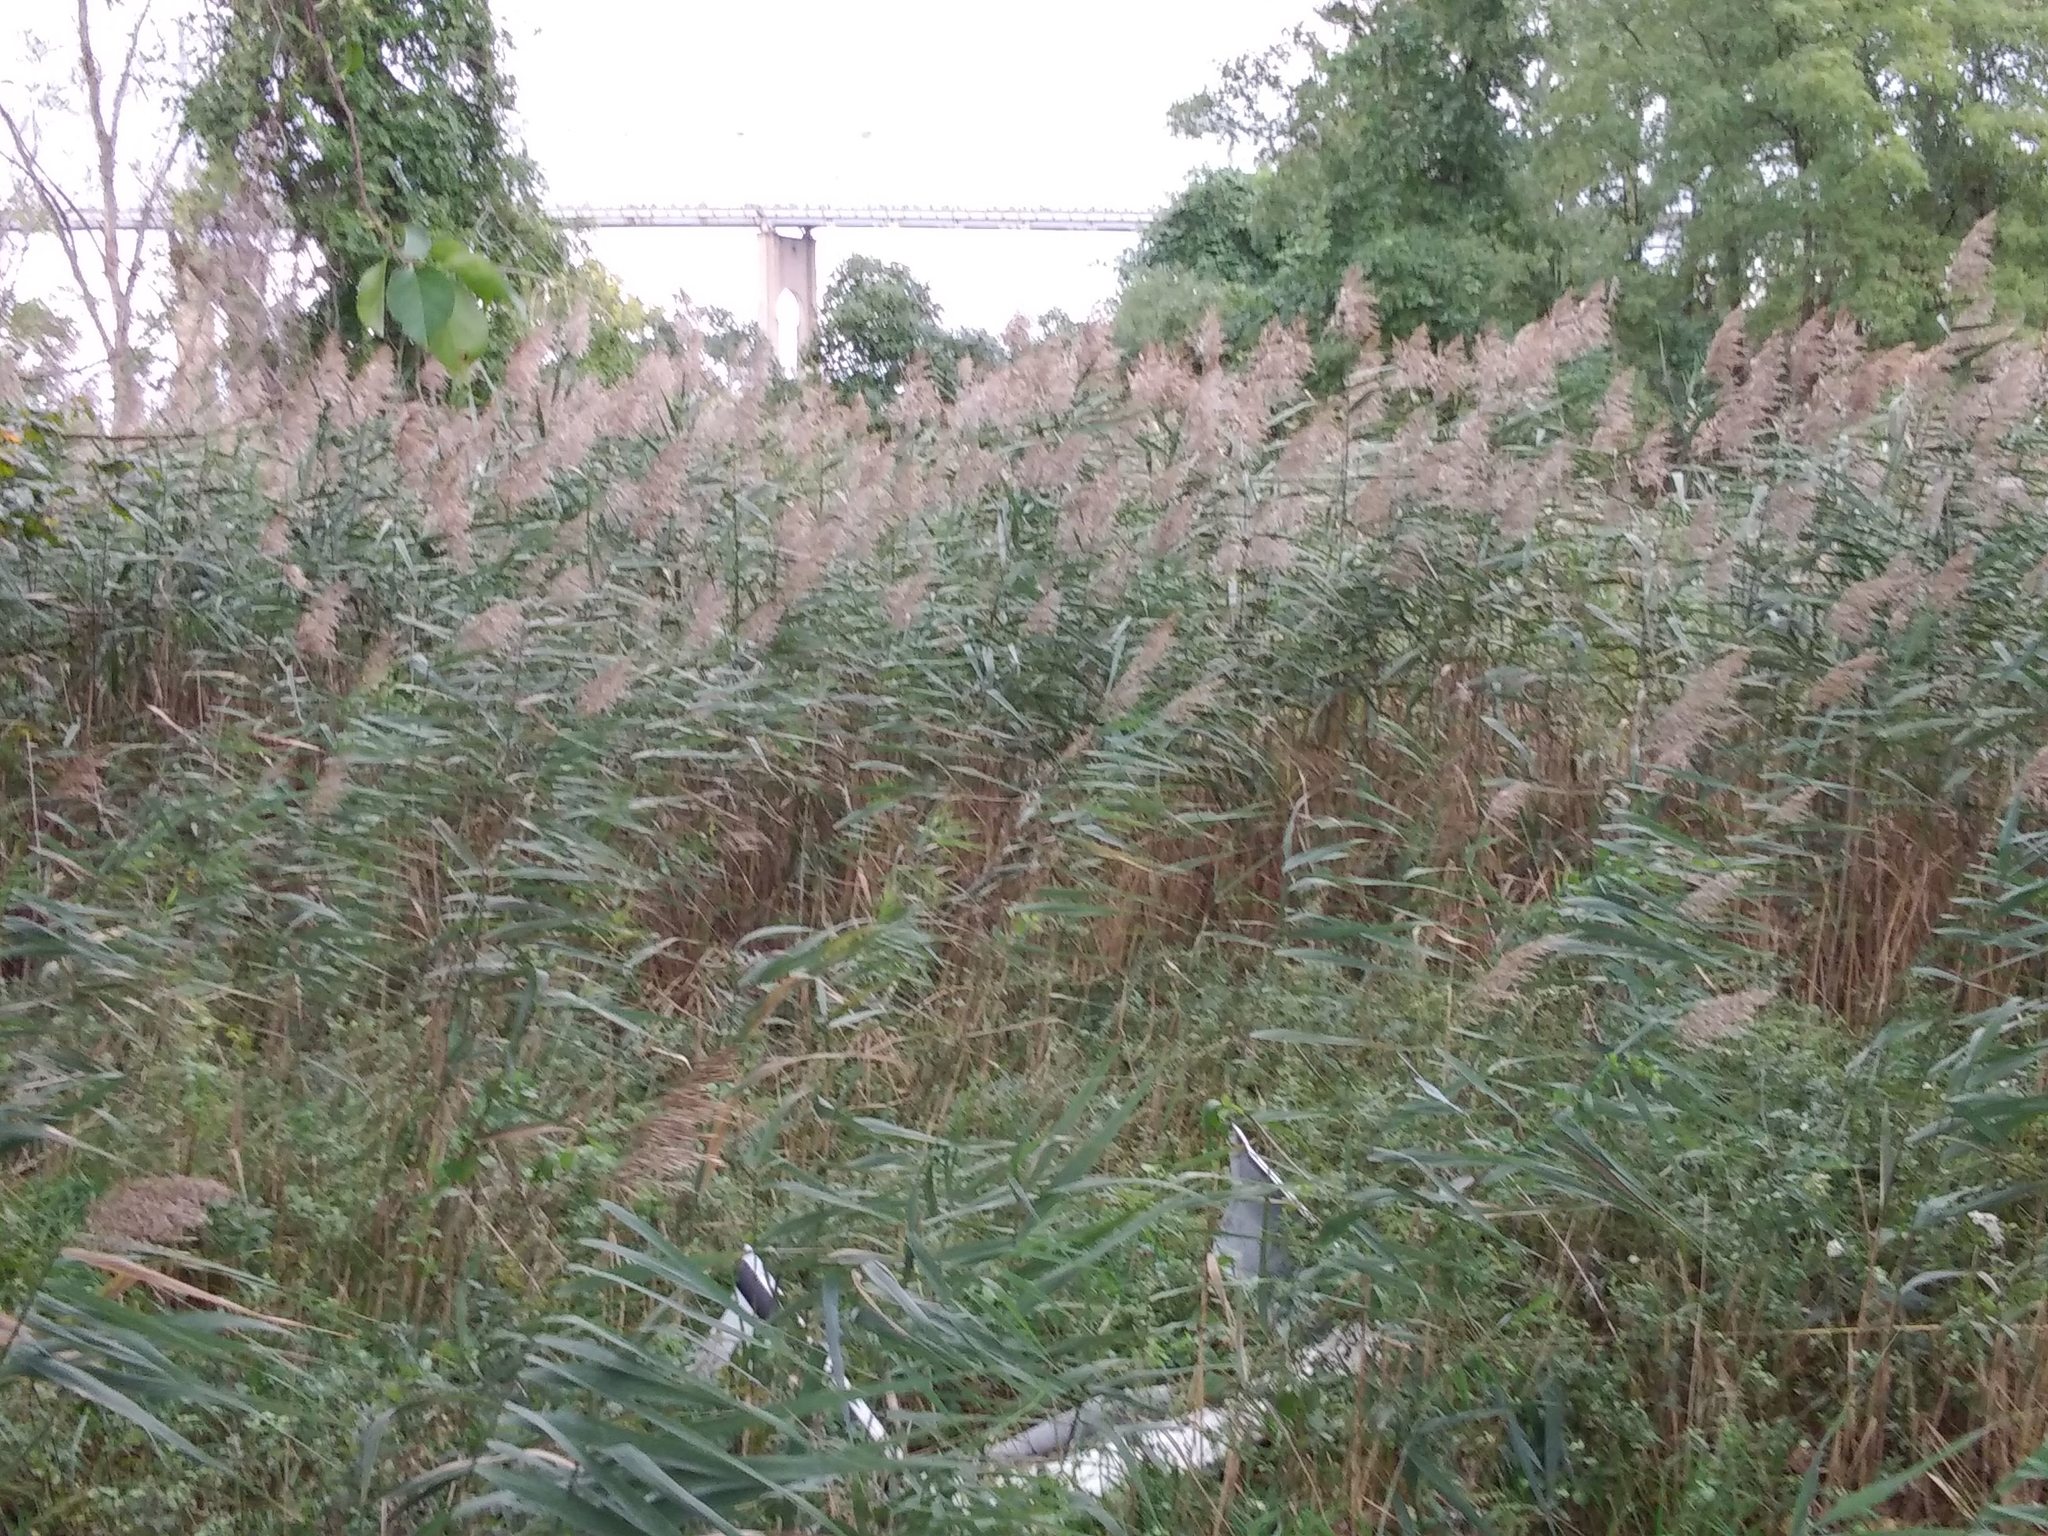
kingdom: Plantae
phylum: Tracheophyta
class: Liliopsida
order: Poales
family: Poaceae
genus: Phragmites
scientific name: Phragmites australis
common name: Common reed
